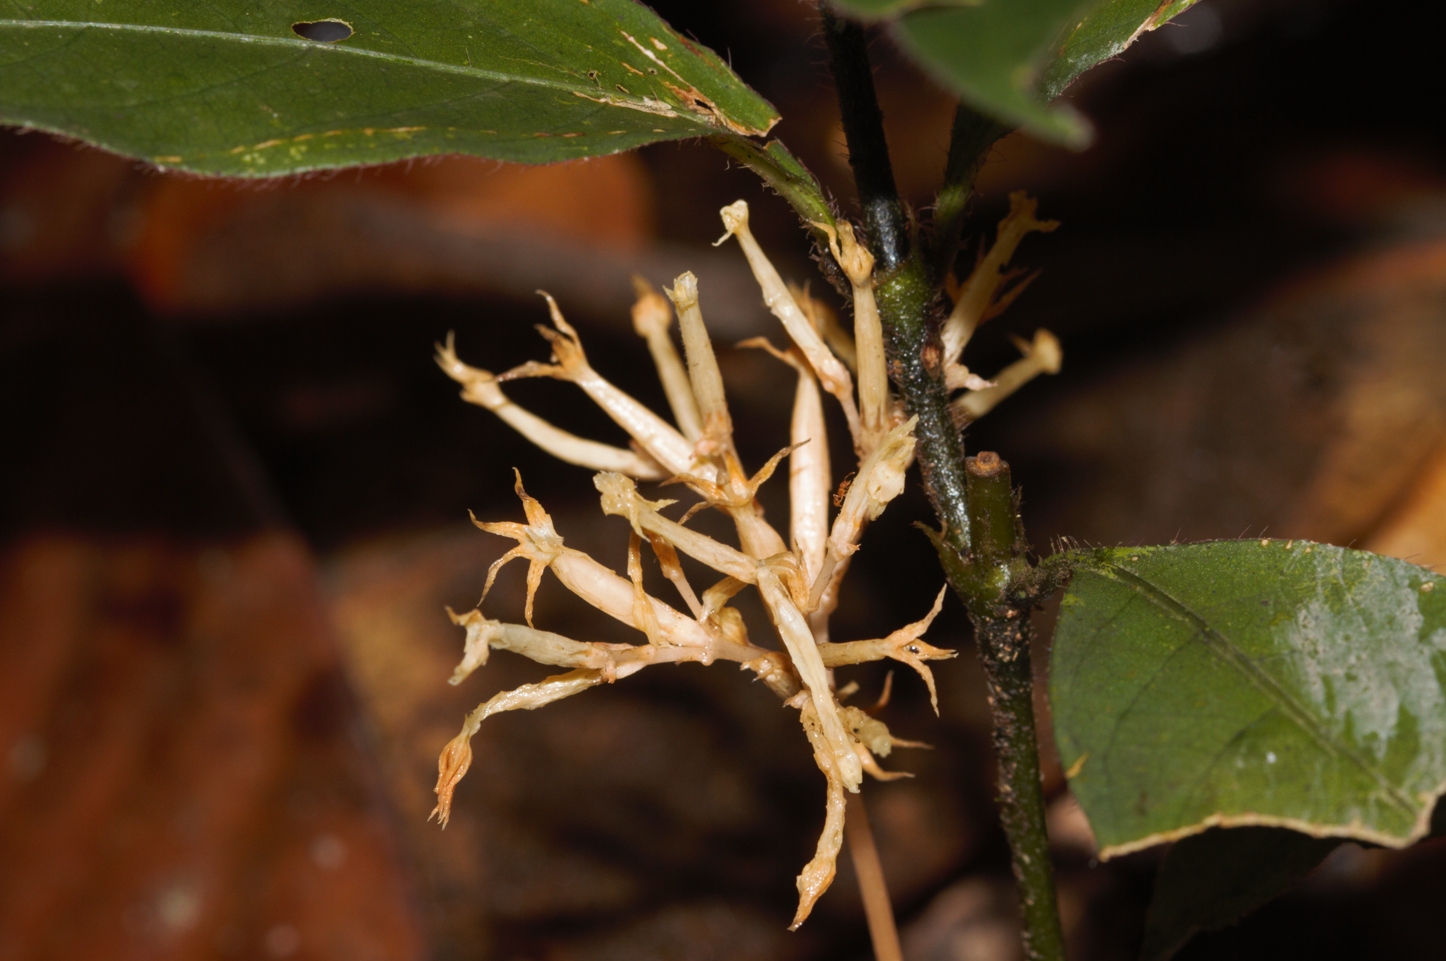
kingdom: Plantae
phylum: Tracheophyta
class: Magnoliopsida
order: Gentianales
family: Gentianaceae
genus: Voyria
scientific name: Voyria corymbosa
